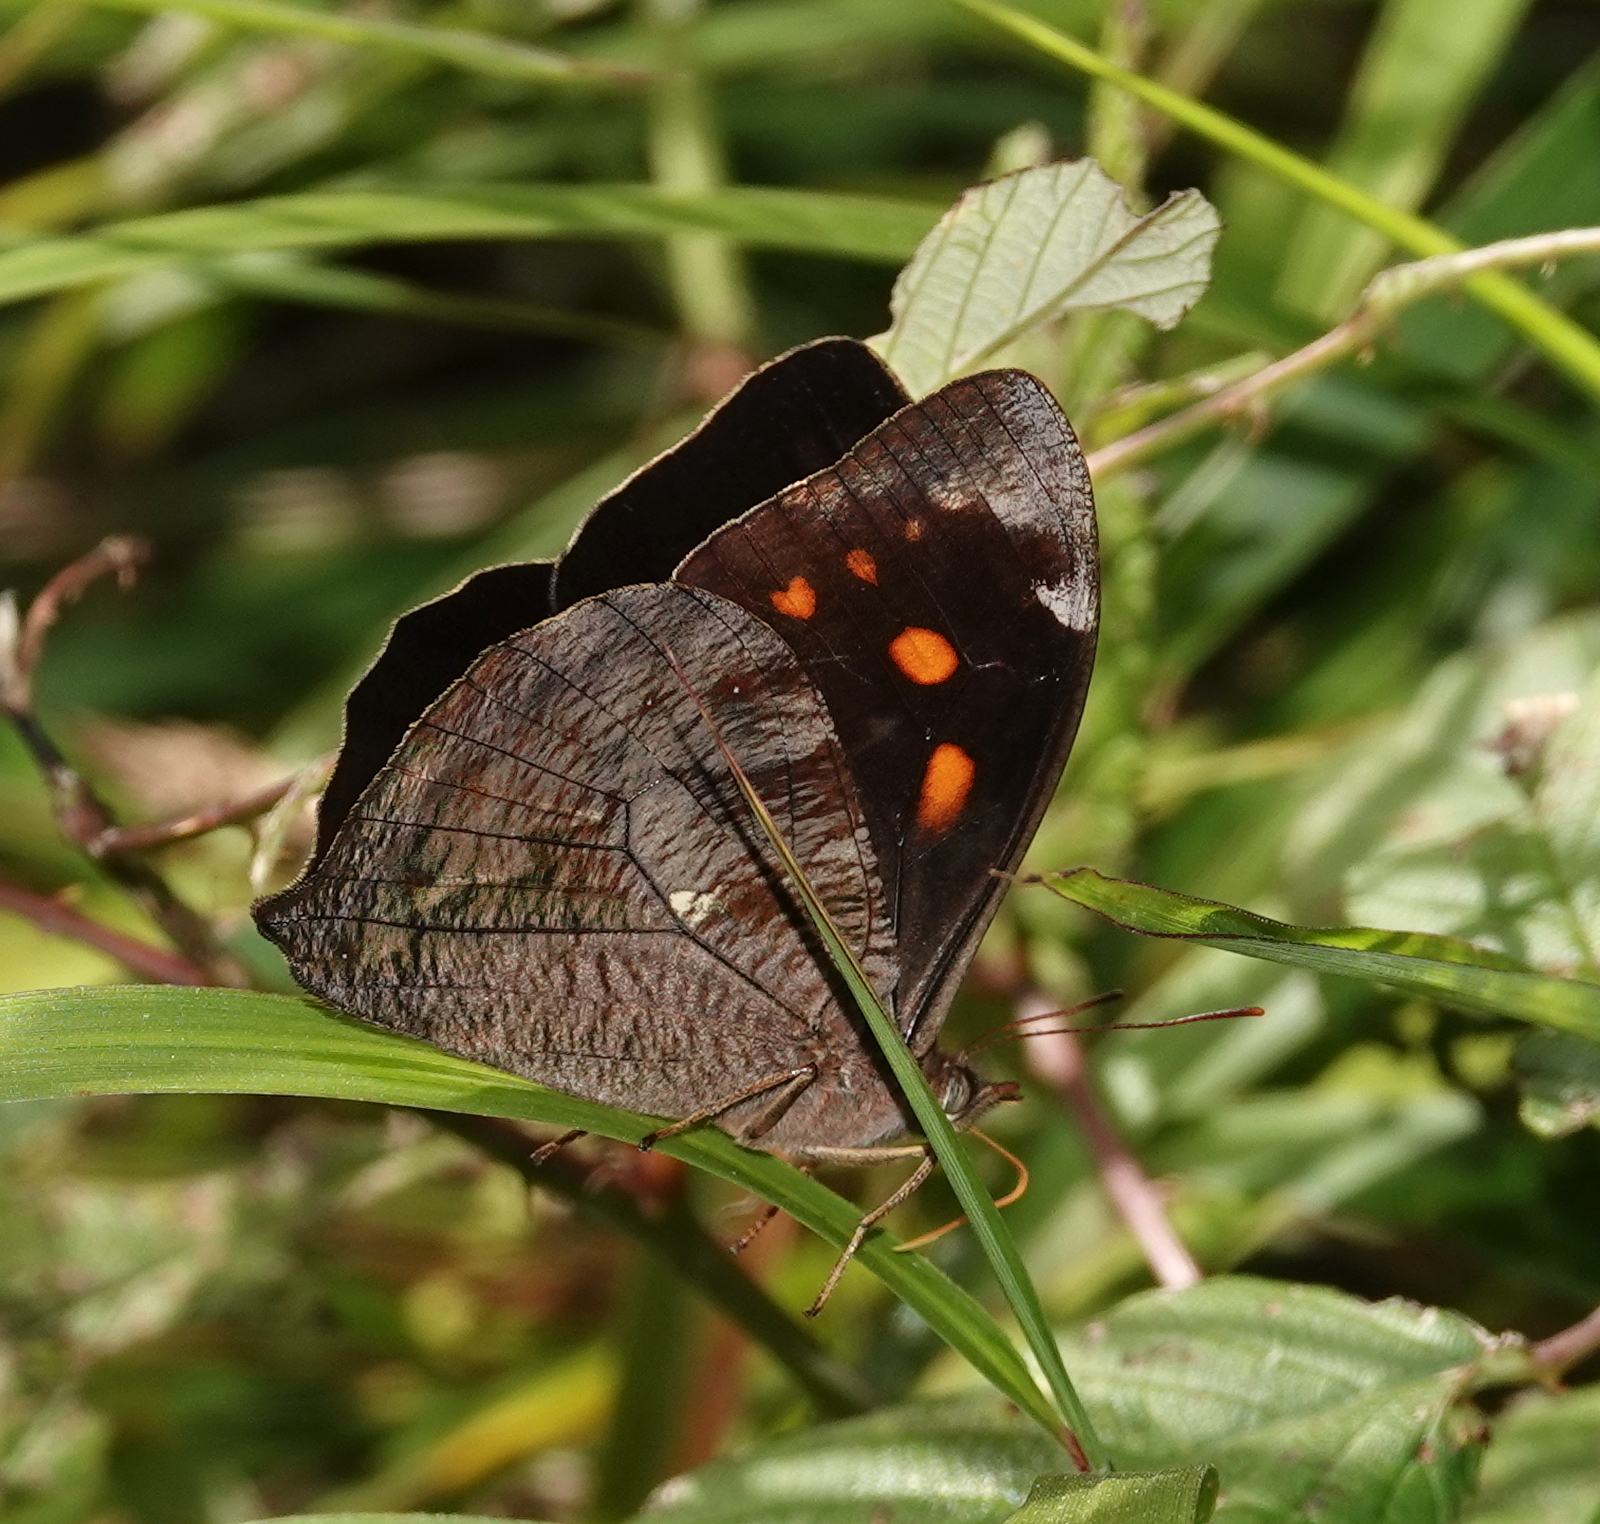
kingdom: Animalia
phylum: Arthropoda
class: Insecta
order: Lepidoptera
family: Nymphalidae
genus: Corades
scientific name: Corades medeba
